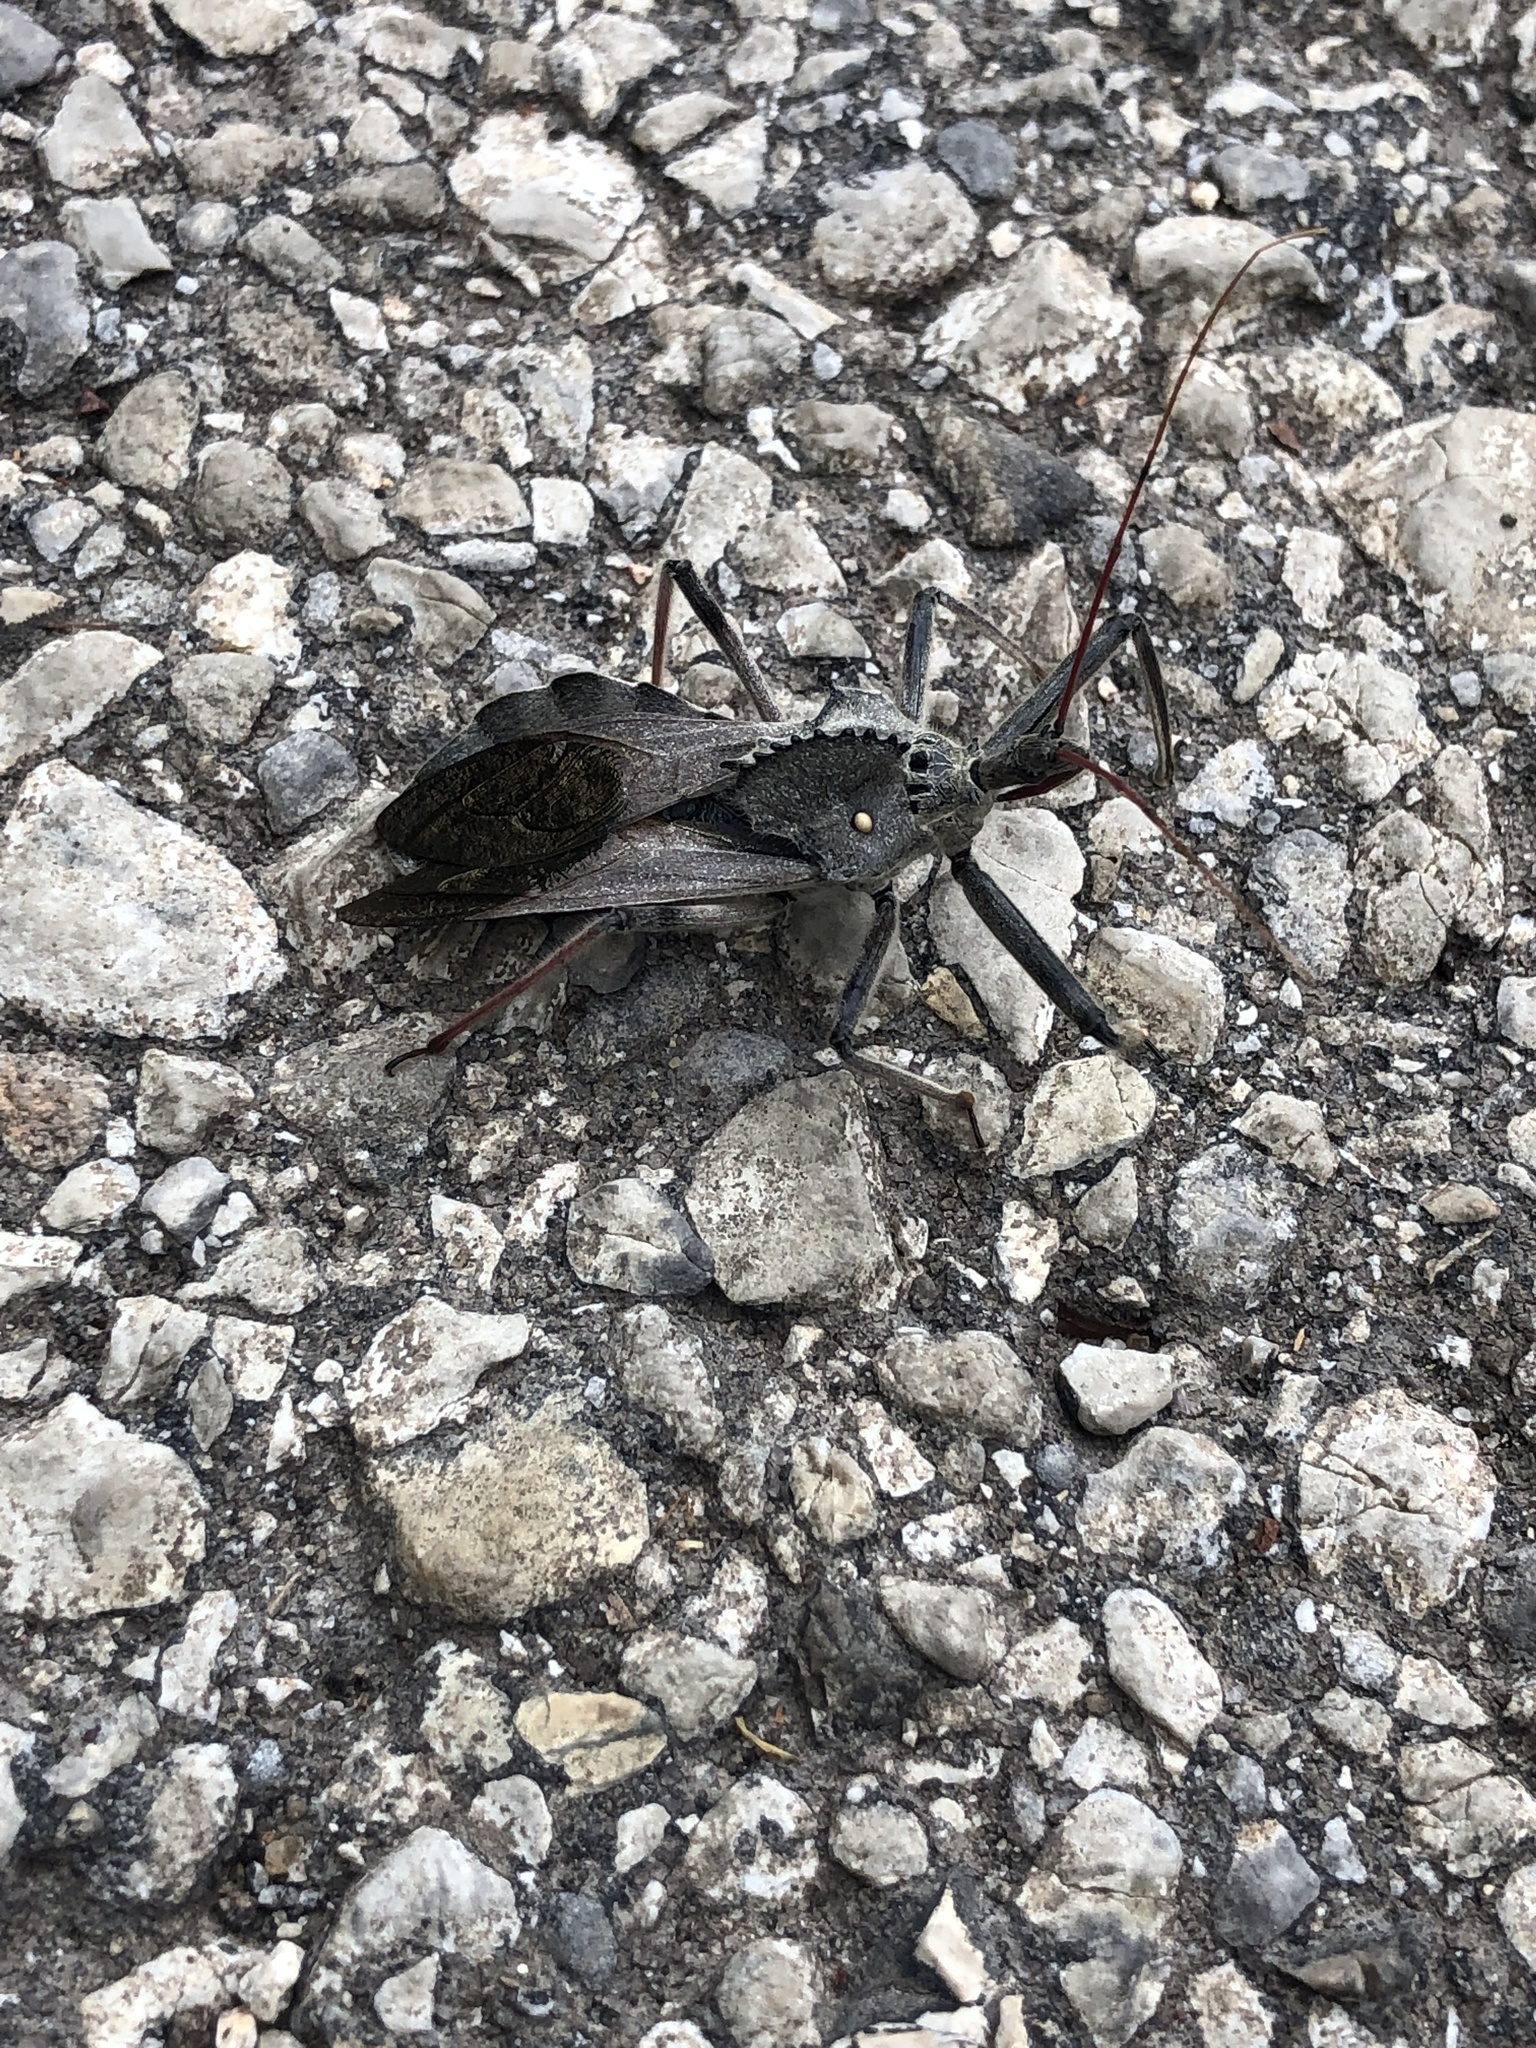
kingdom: Animalia
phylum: Arthropoda
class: Insecta
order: Hemiptera
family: Reduviidae
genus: Arilus
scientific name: Arilus cristatus
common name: North american wheel bug
